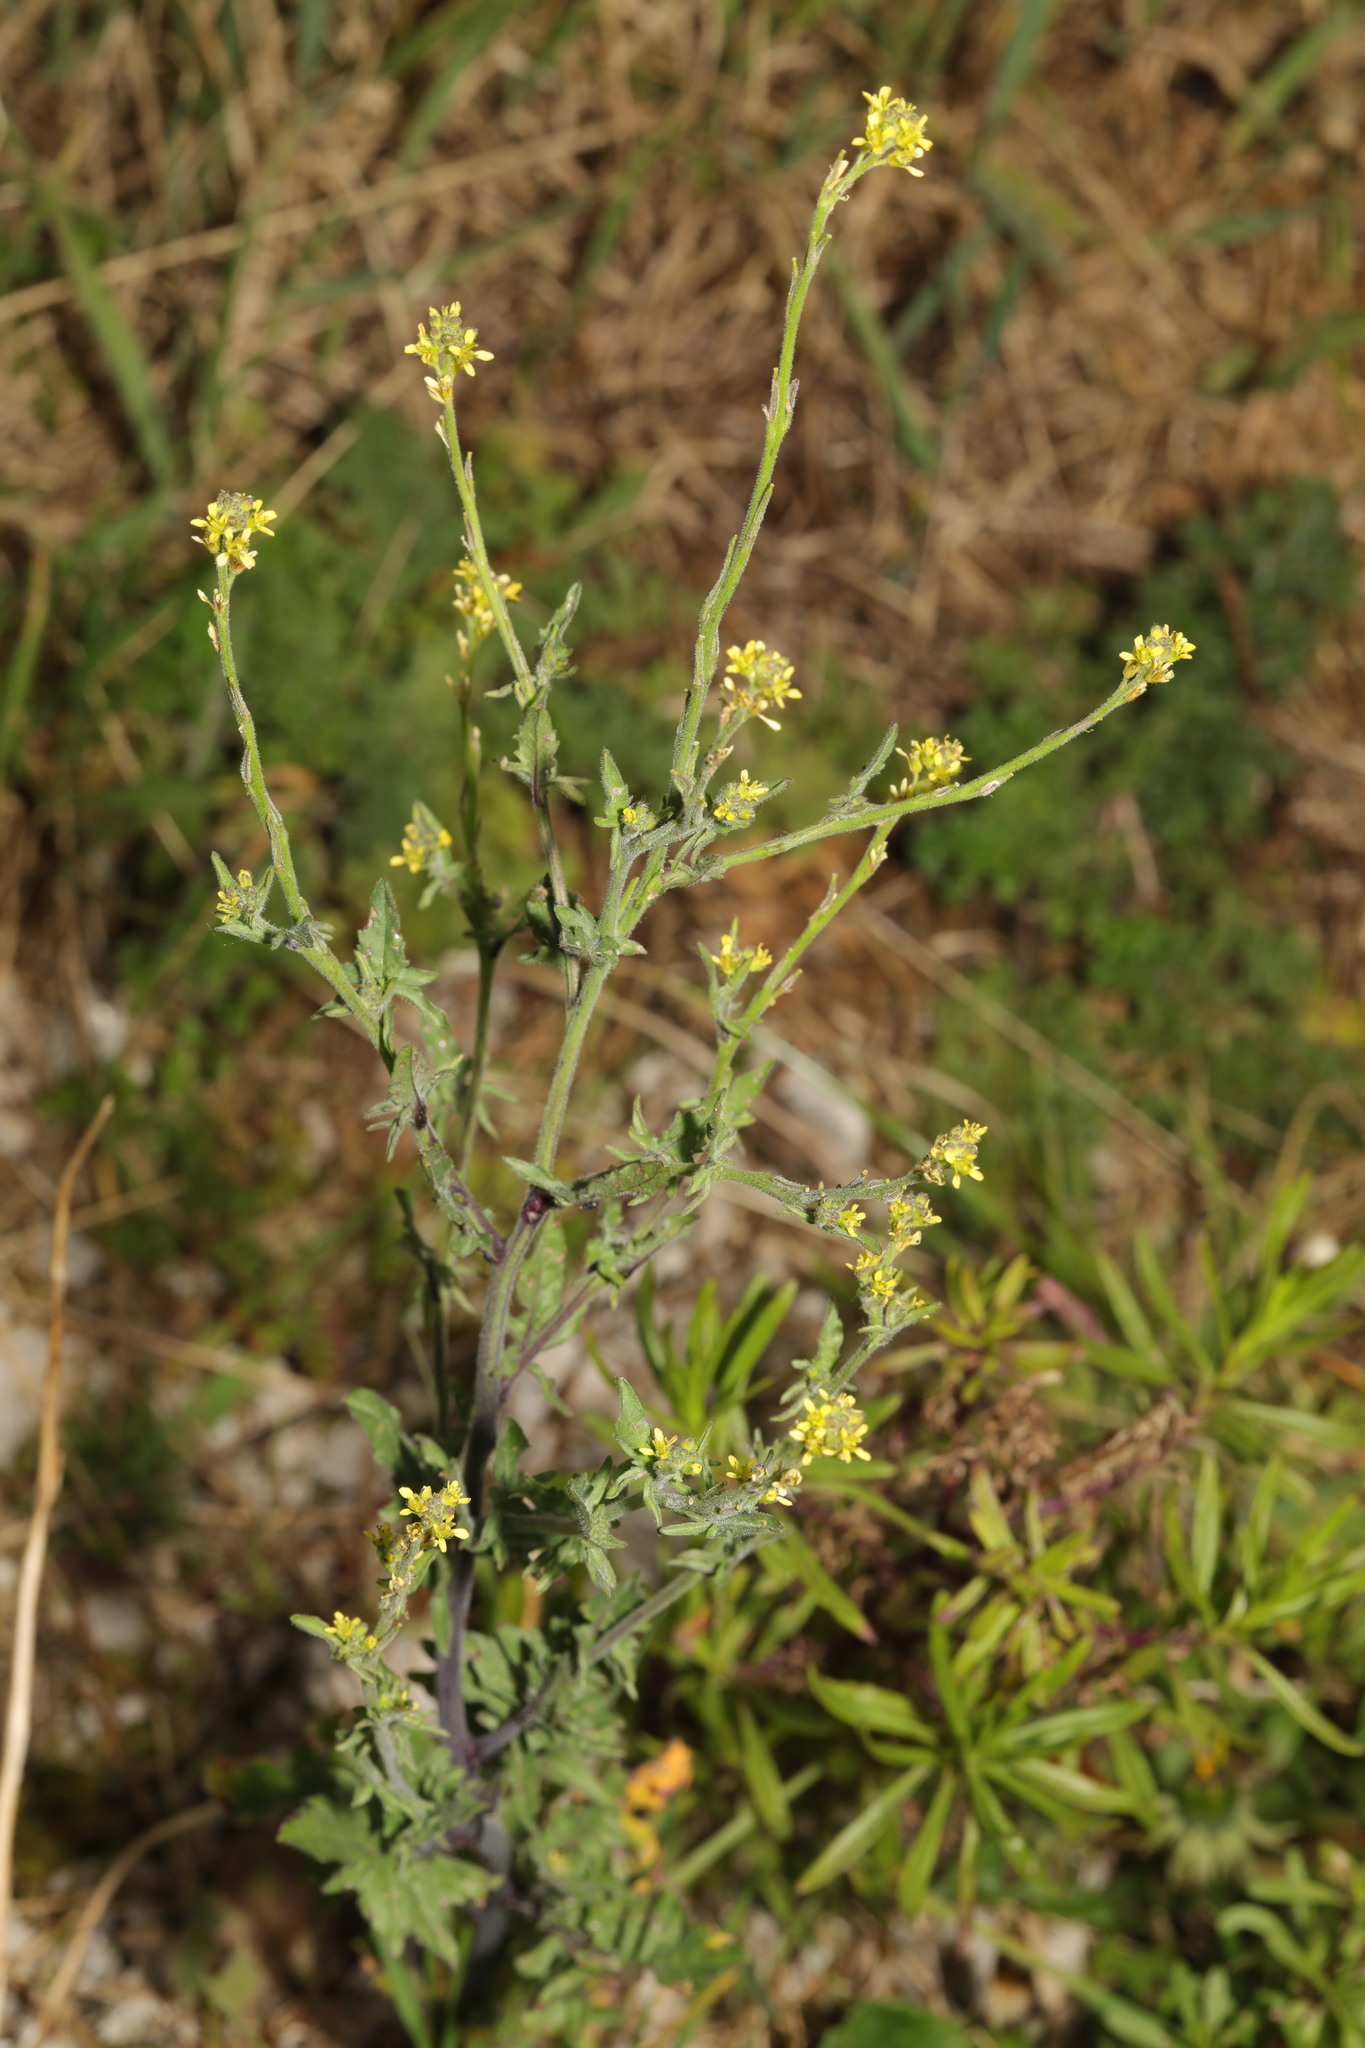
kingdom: Plantae
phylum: Tracheophyta
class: Magnoliopsida
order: Brassicales
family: Brassicaceae
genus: Sisymbrium
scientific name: Sisymbrium officinale
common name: Hedge mustard
